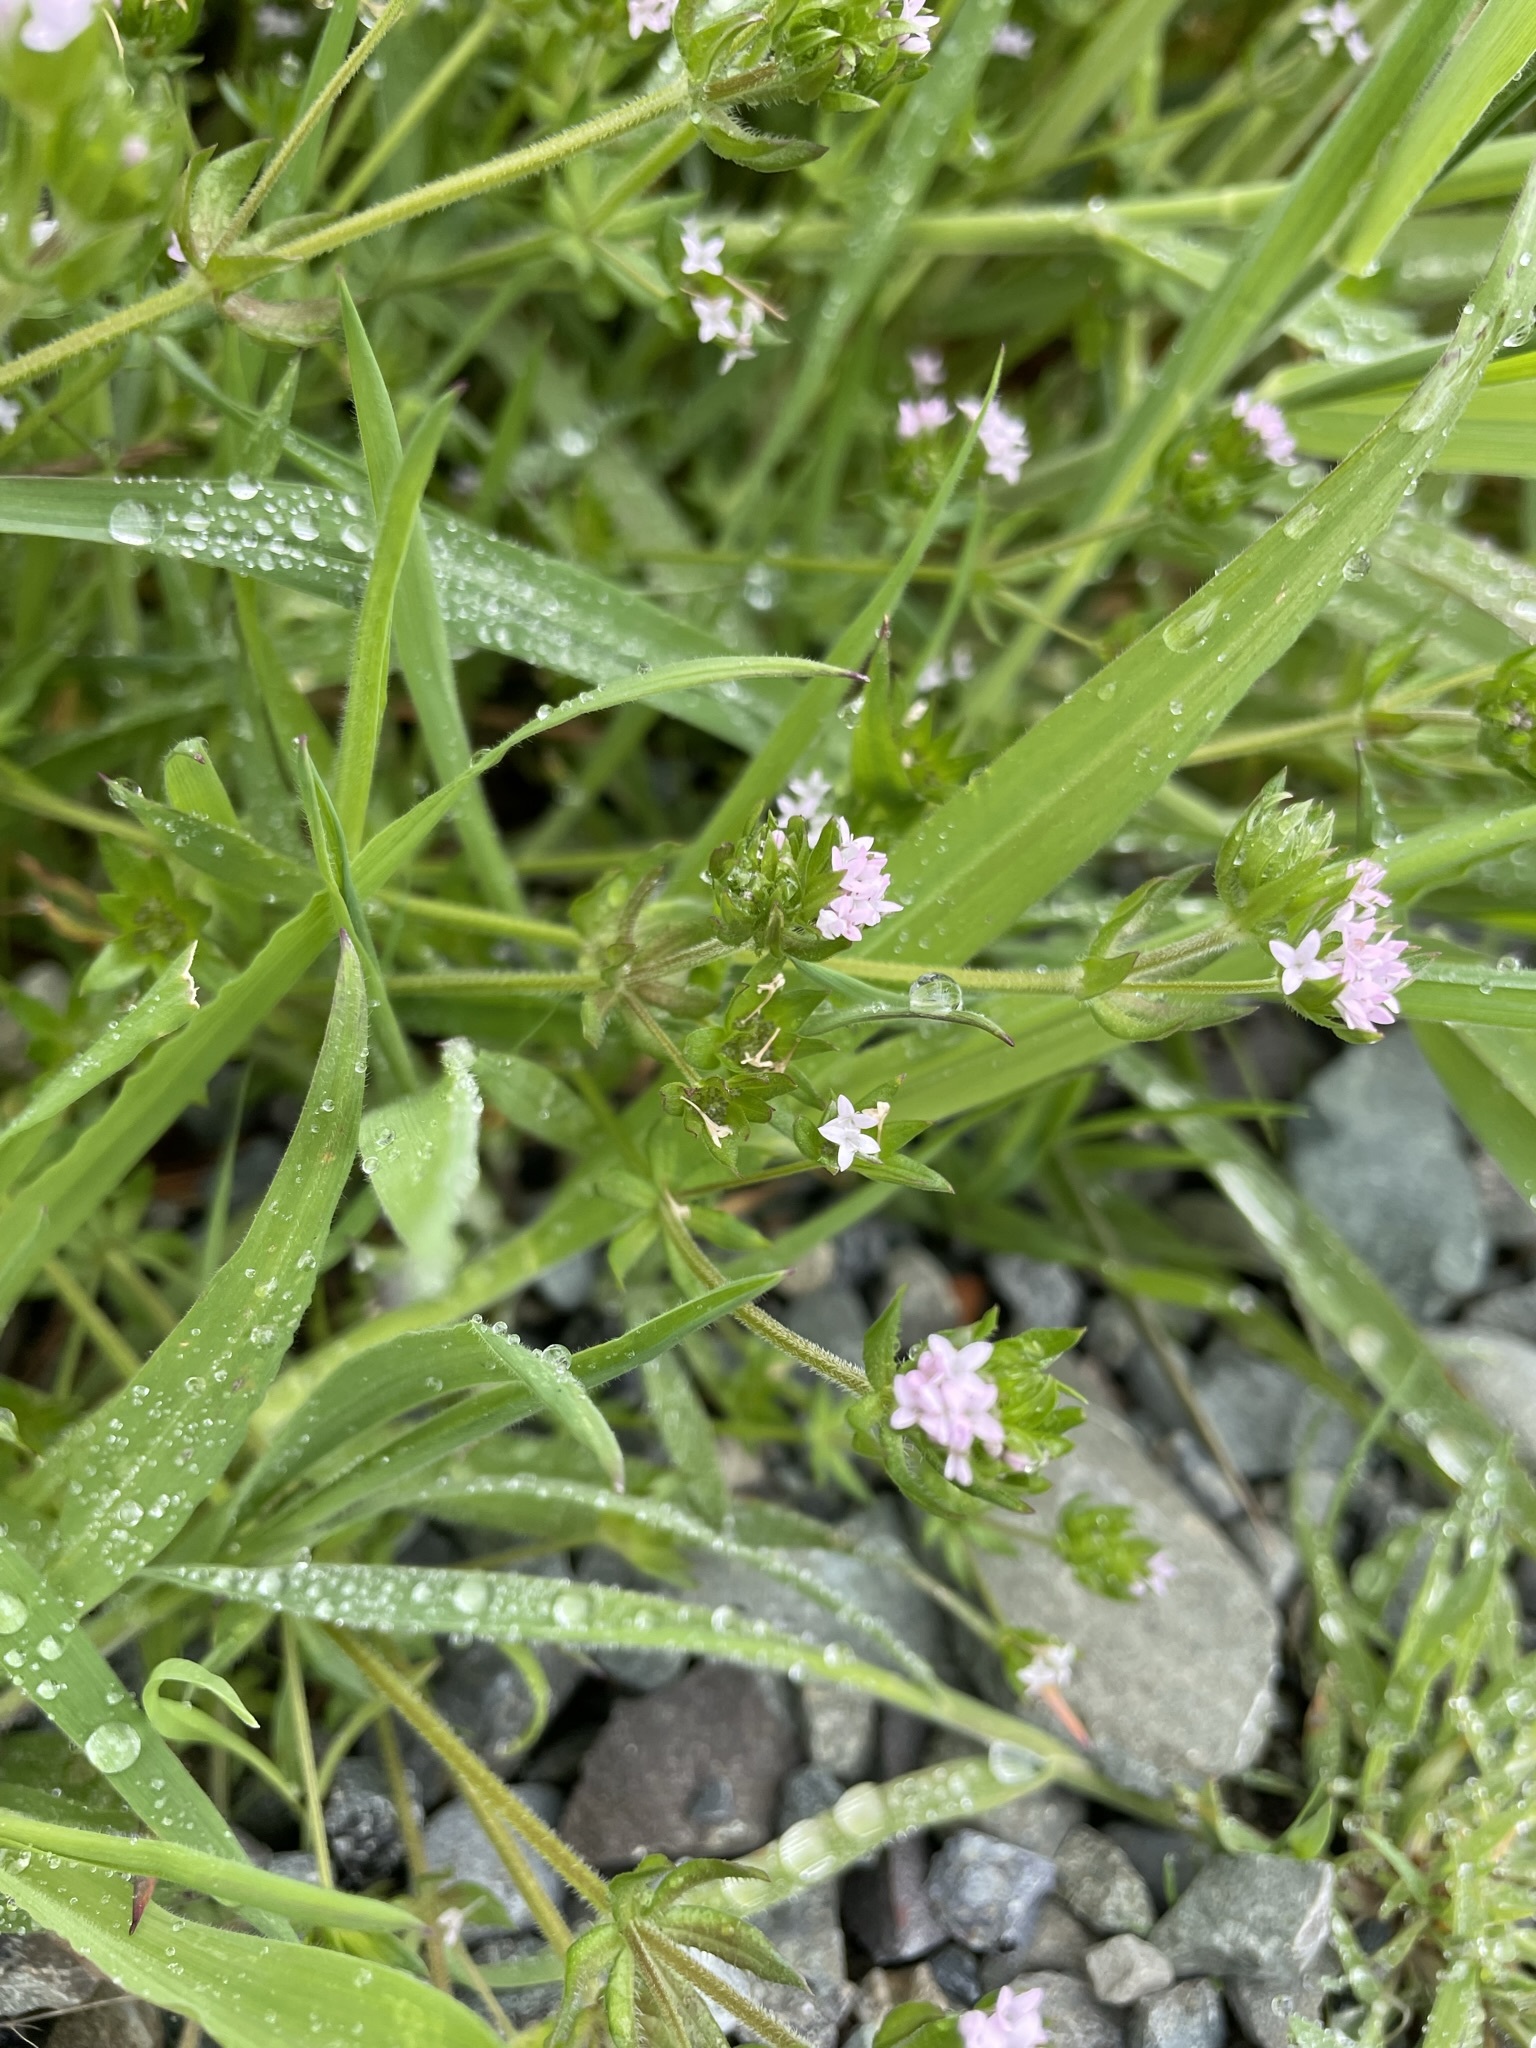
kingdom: Plantae
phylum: Tracheophyta
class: Magnoliopsida
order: Gentianales
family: Rubiaceae
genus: Sherardia
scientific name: Sherardia arvensis
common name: Field madder
